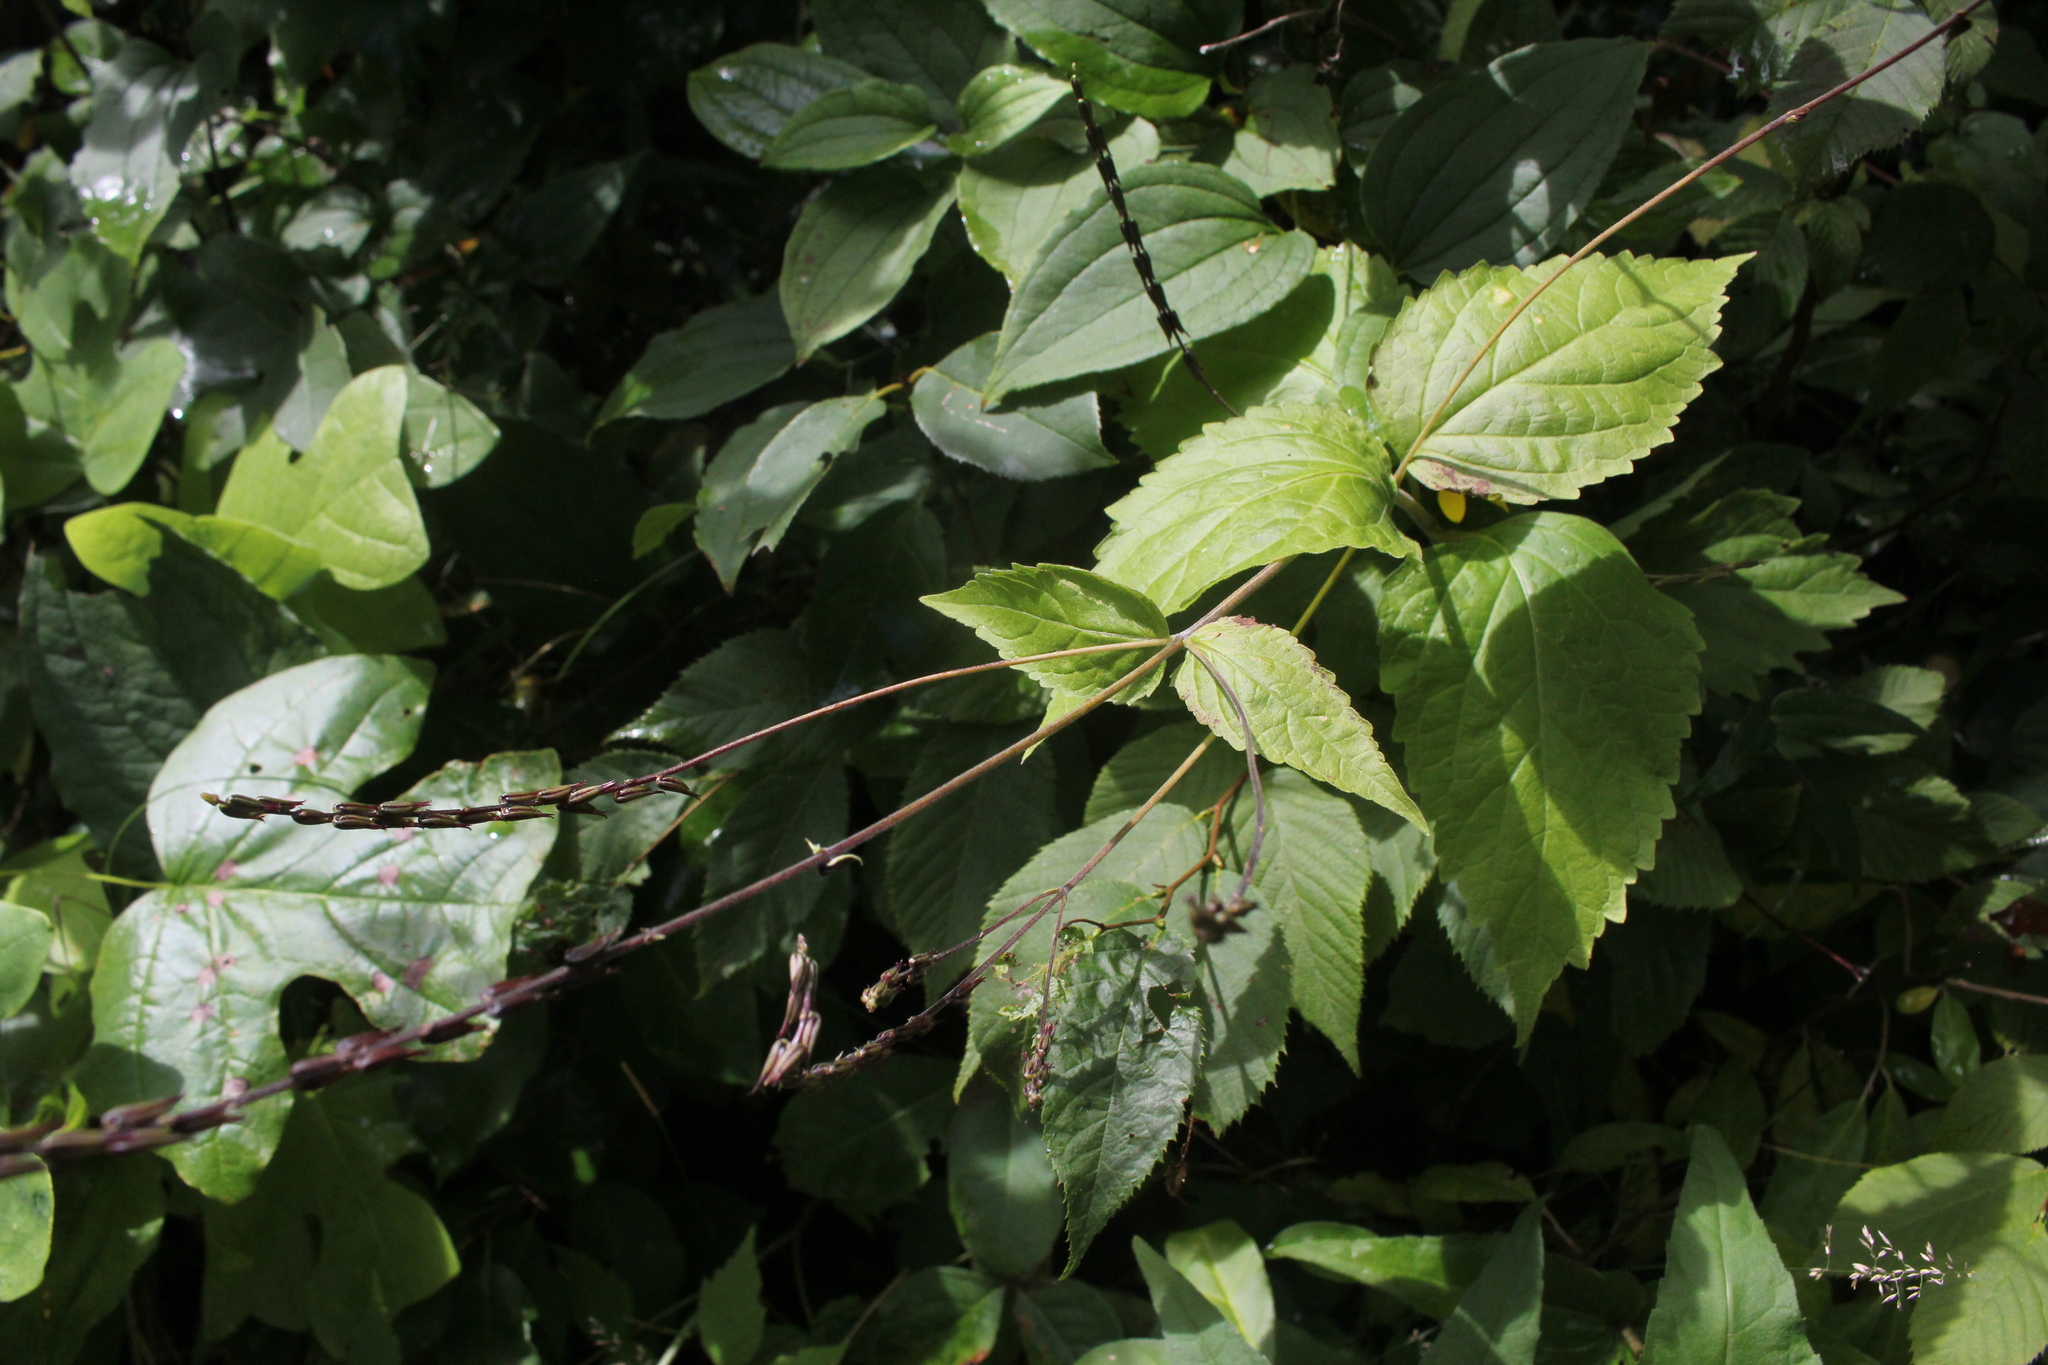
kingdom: Plantae
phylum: Tracheophyta
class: Magnoliopsida
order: Lamiales
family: Phrymaceae
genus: Phryma
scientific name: Phryma leptostachya
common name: American lopseed
